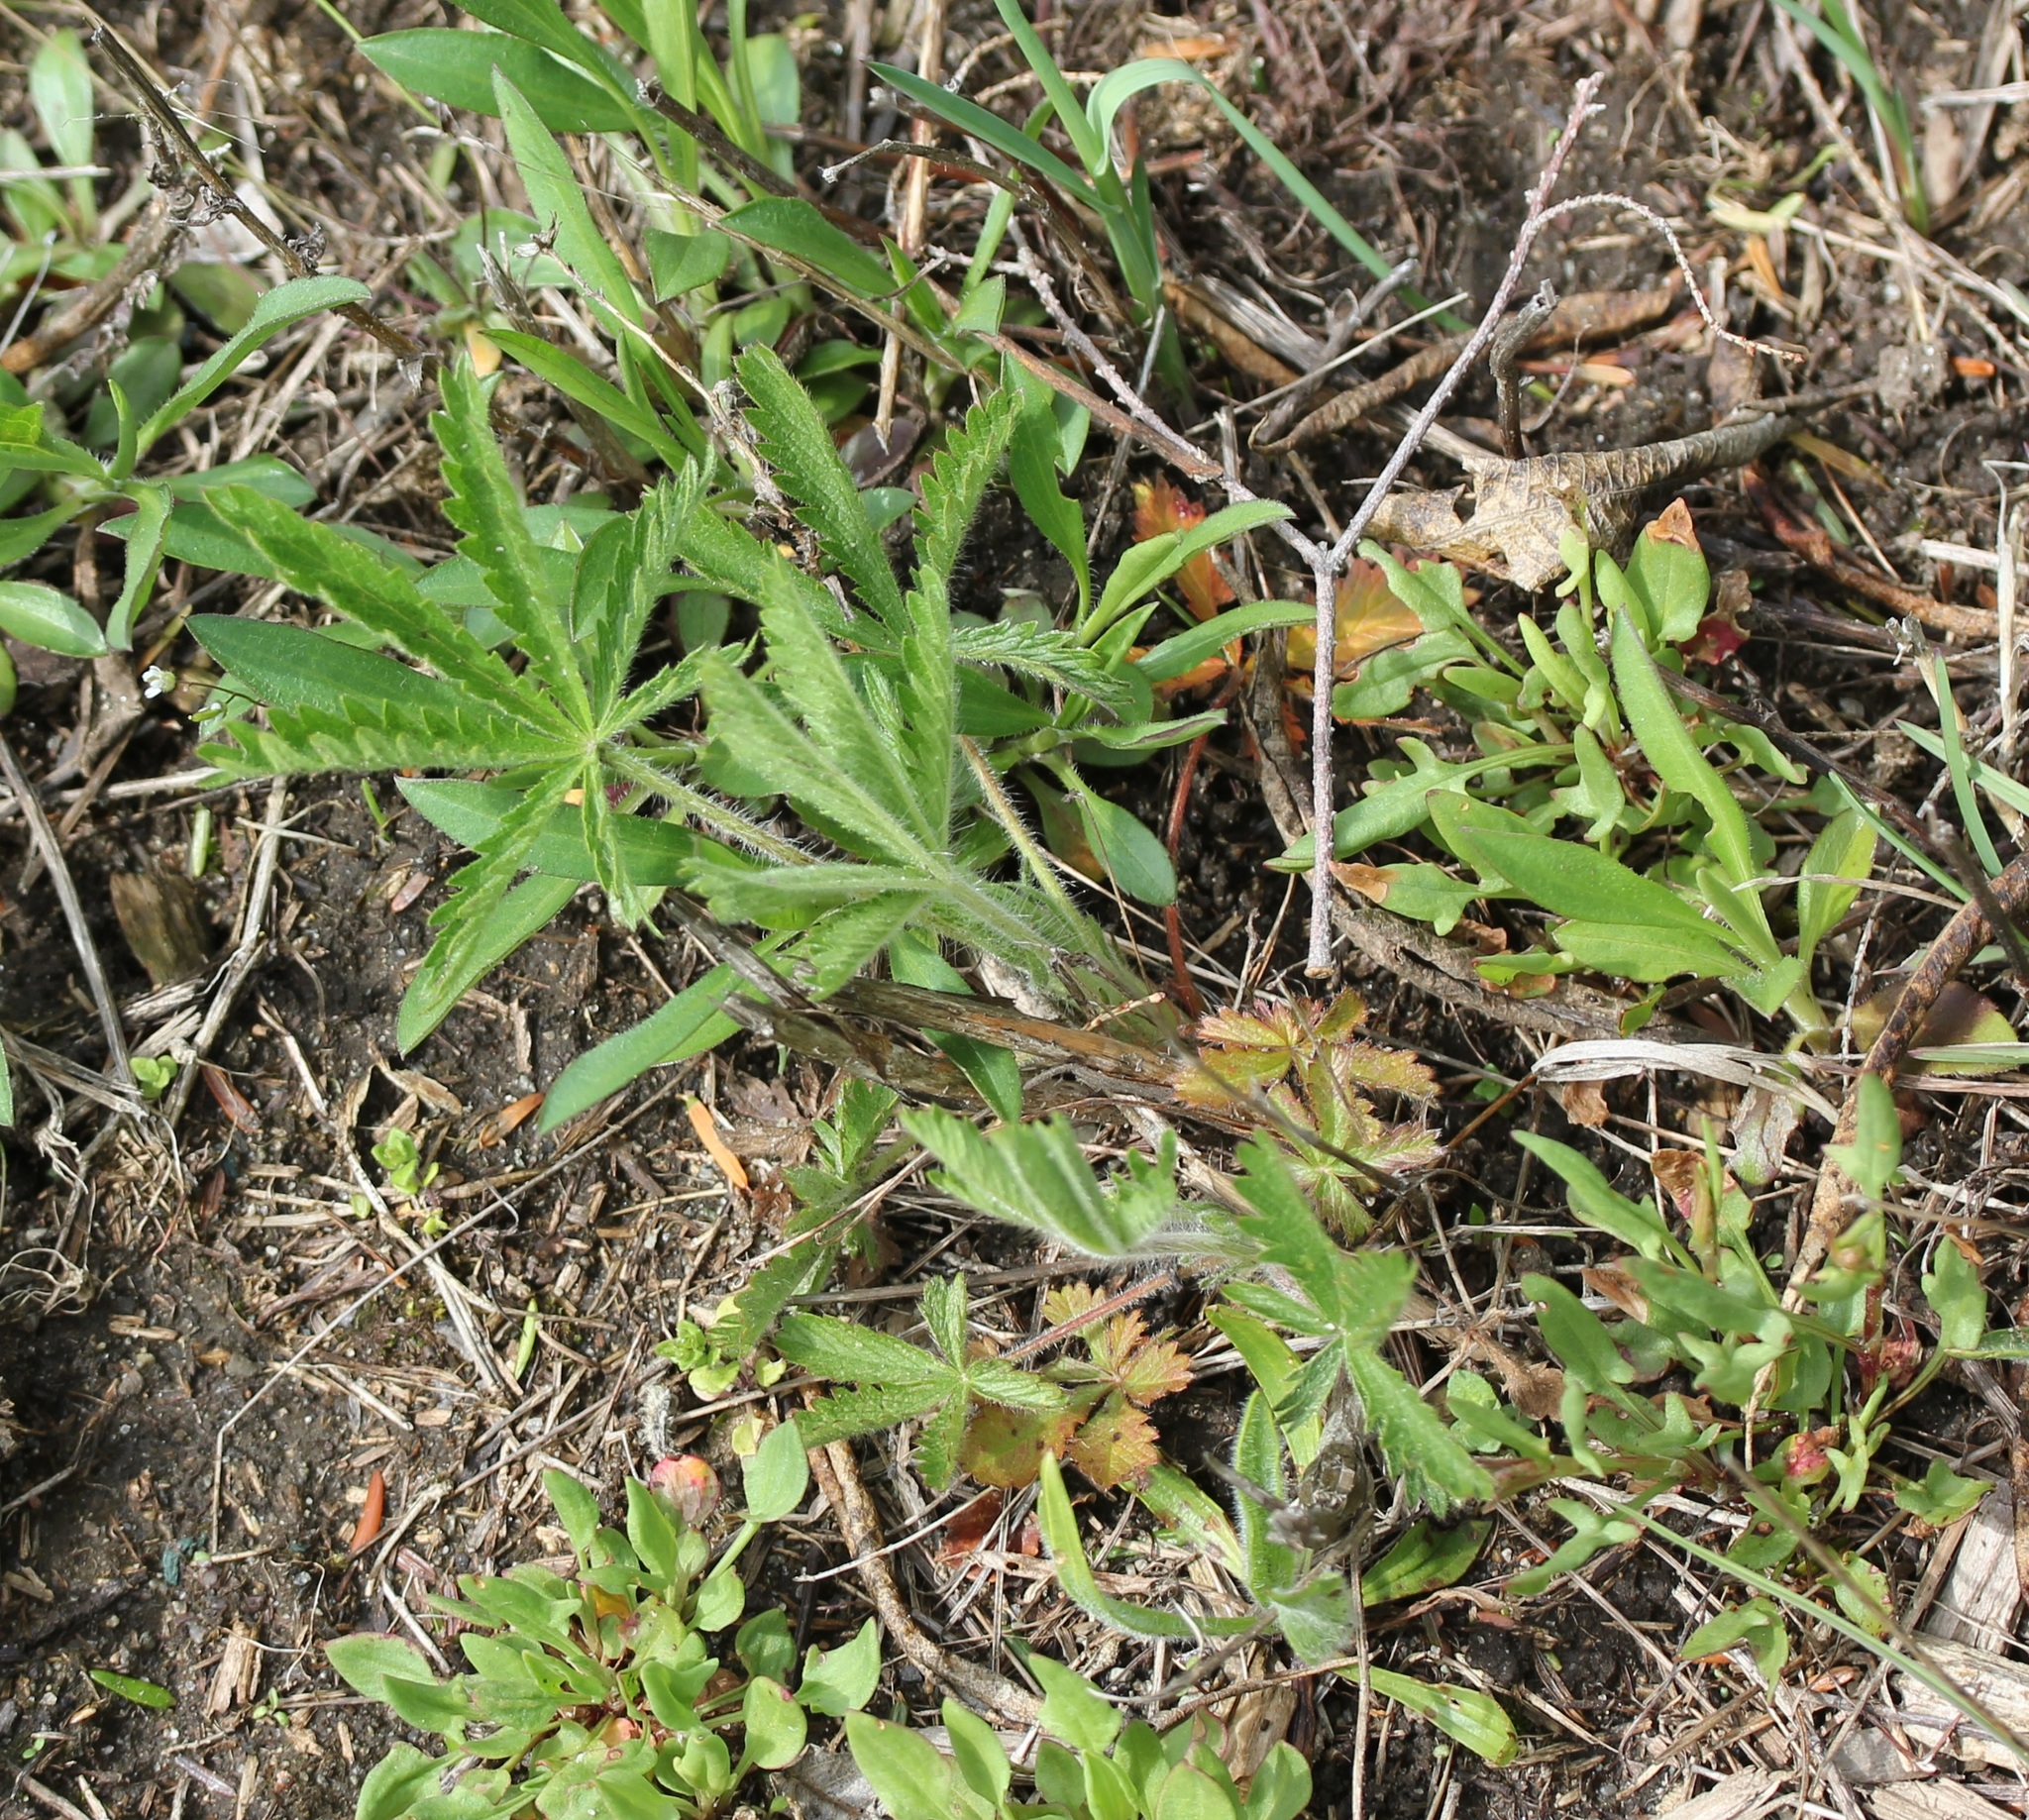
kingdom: Plantae
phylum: Tracheophyta
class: Magnoliopsida
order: Rosales
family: Rosaceae
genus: Potentilla
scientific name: Potentilla recta
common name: Sulphur cinquefoil
